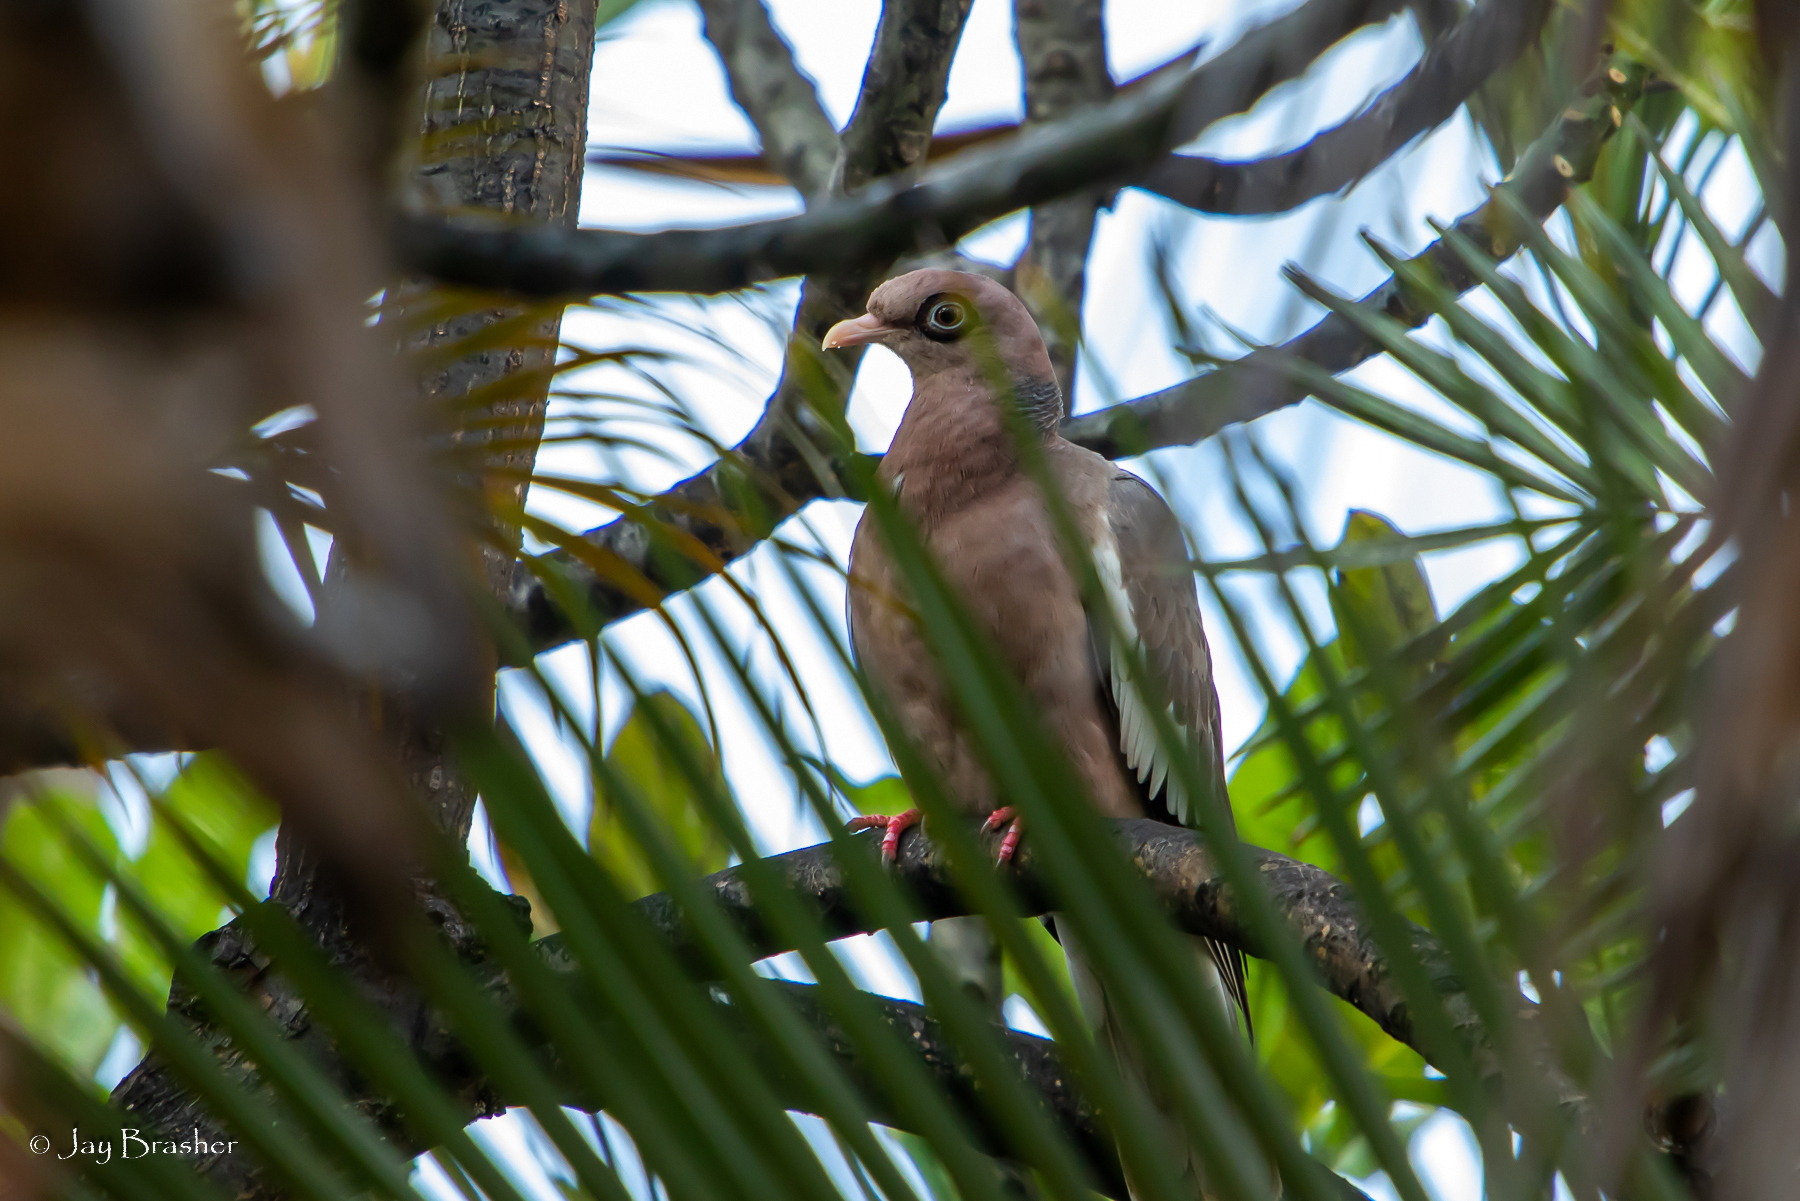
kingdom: Animalia
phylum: Chordata
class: Aves
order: Columbiformes
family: Columbidae
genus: Patagioenas
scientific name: Patagioenas corensis
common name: Bare-eyed pigeon
